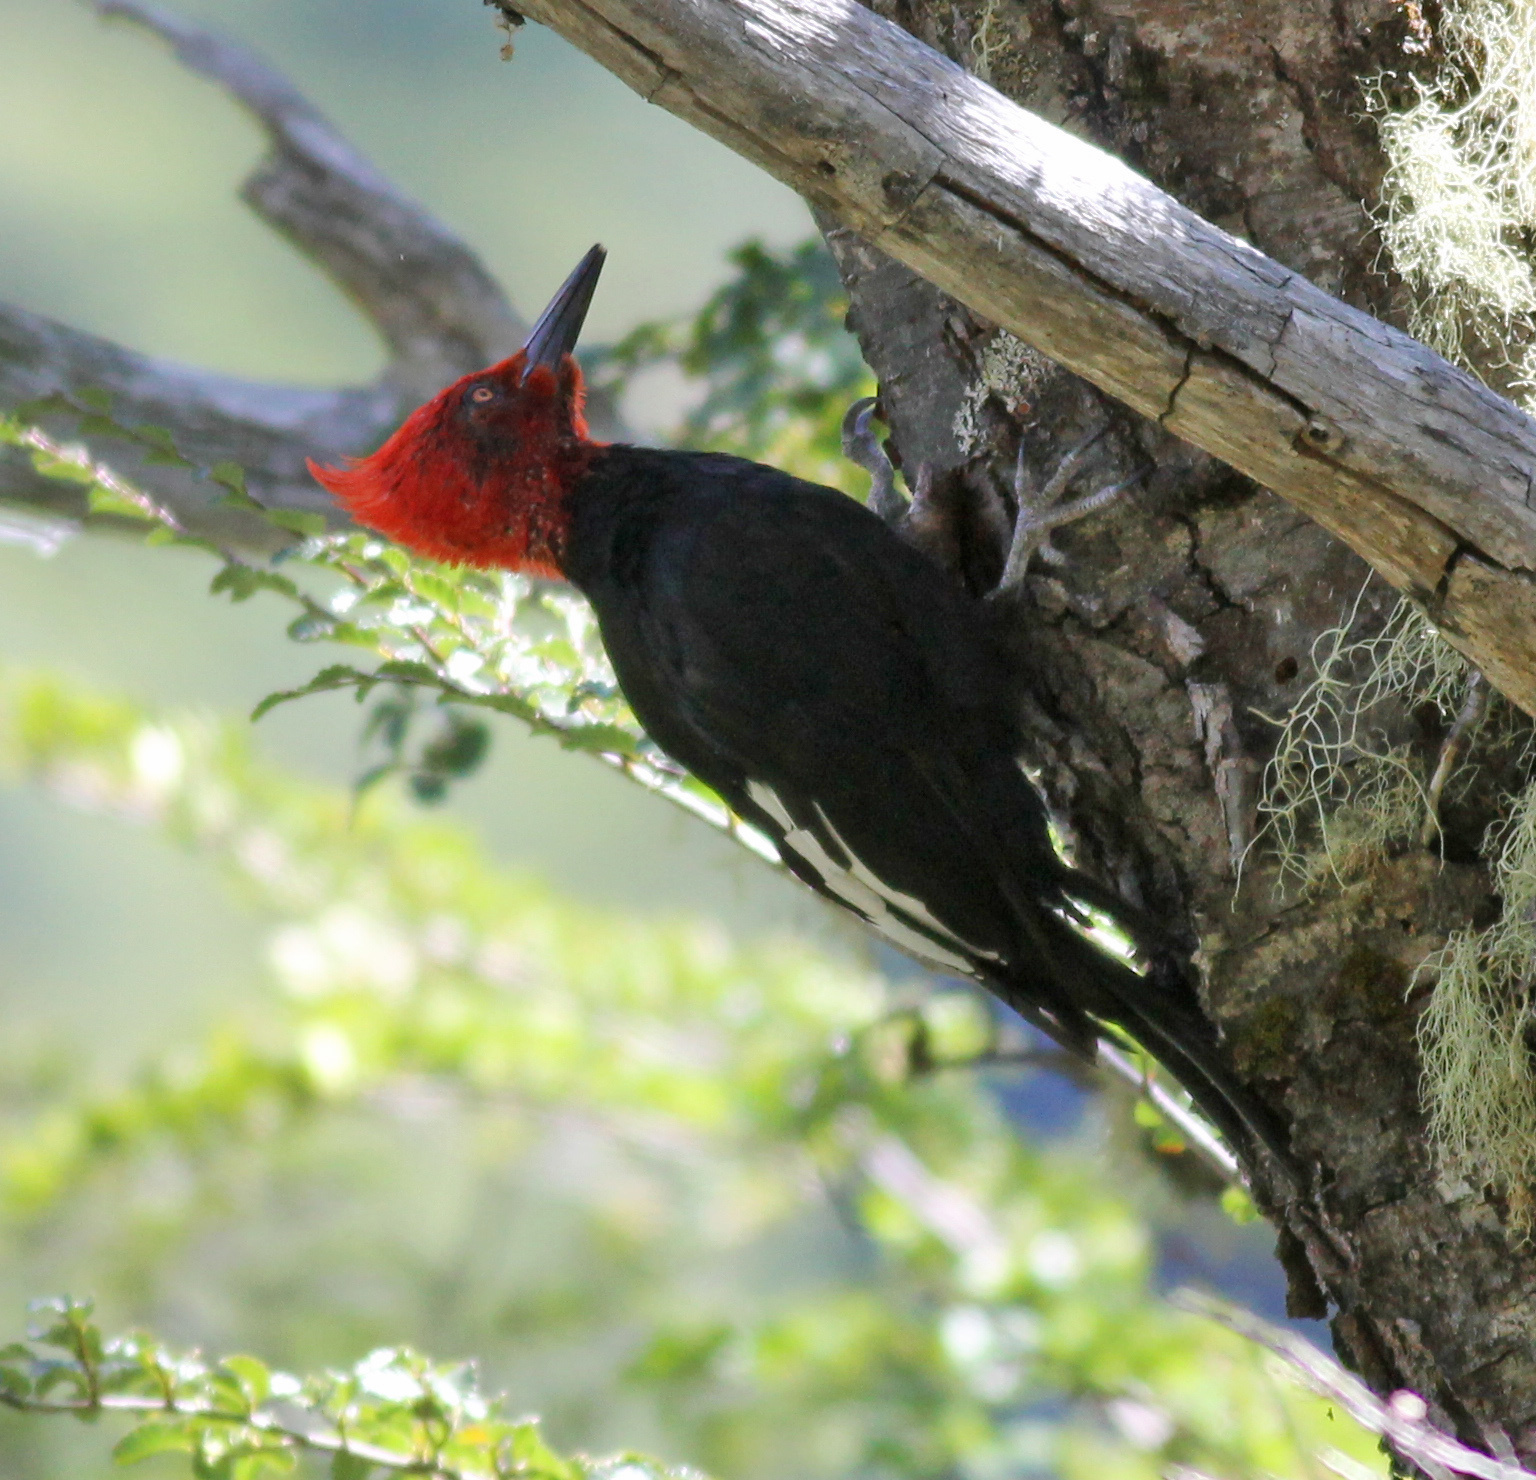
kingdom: Animalia
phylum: Chordata
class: Aves
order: Piciformes
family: Picidae
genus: Campephilus
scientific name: Campephilus magellanicus
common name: Magellanic woodpecker
